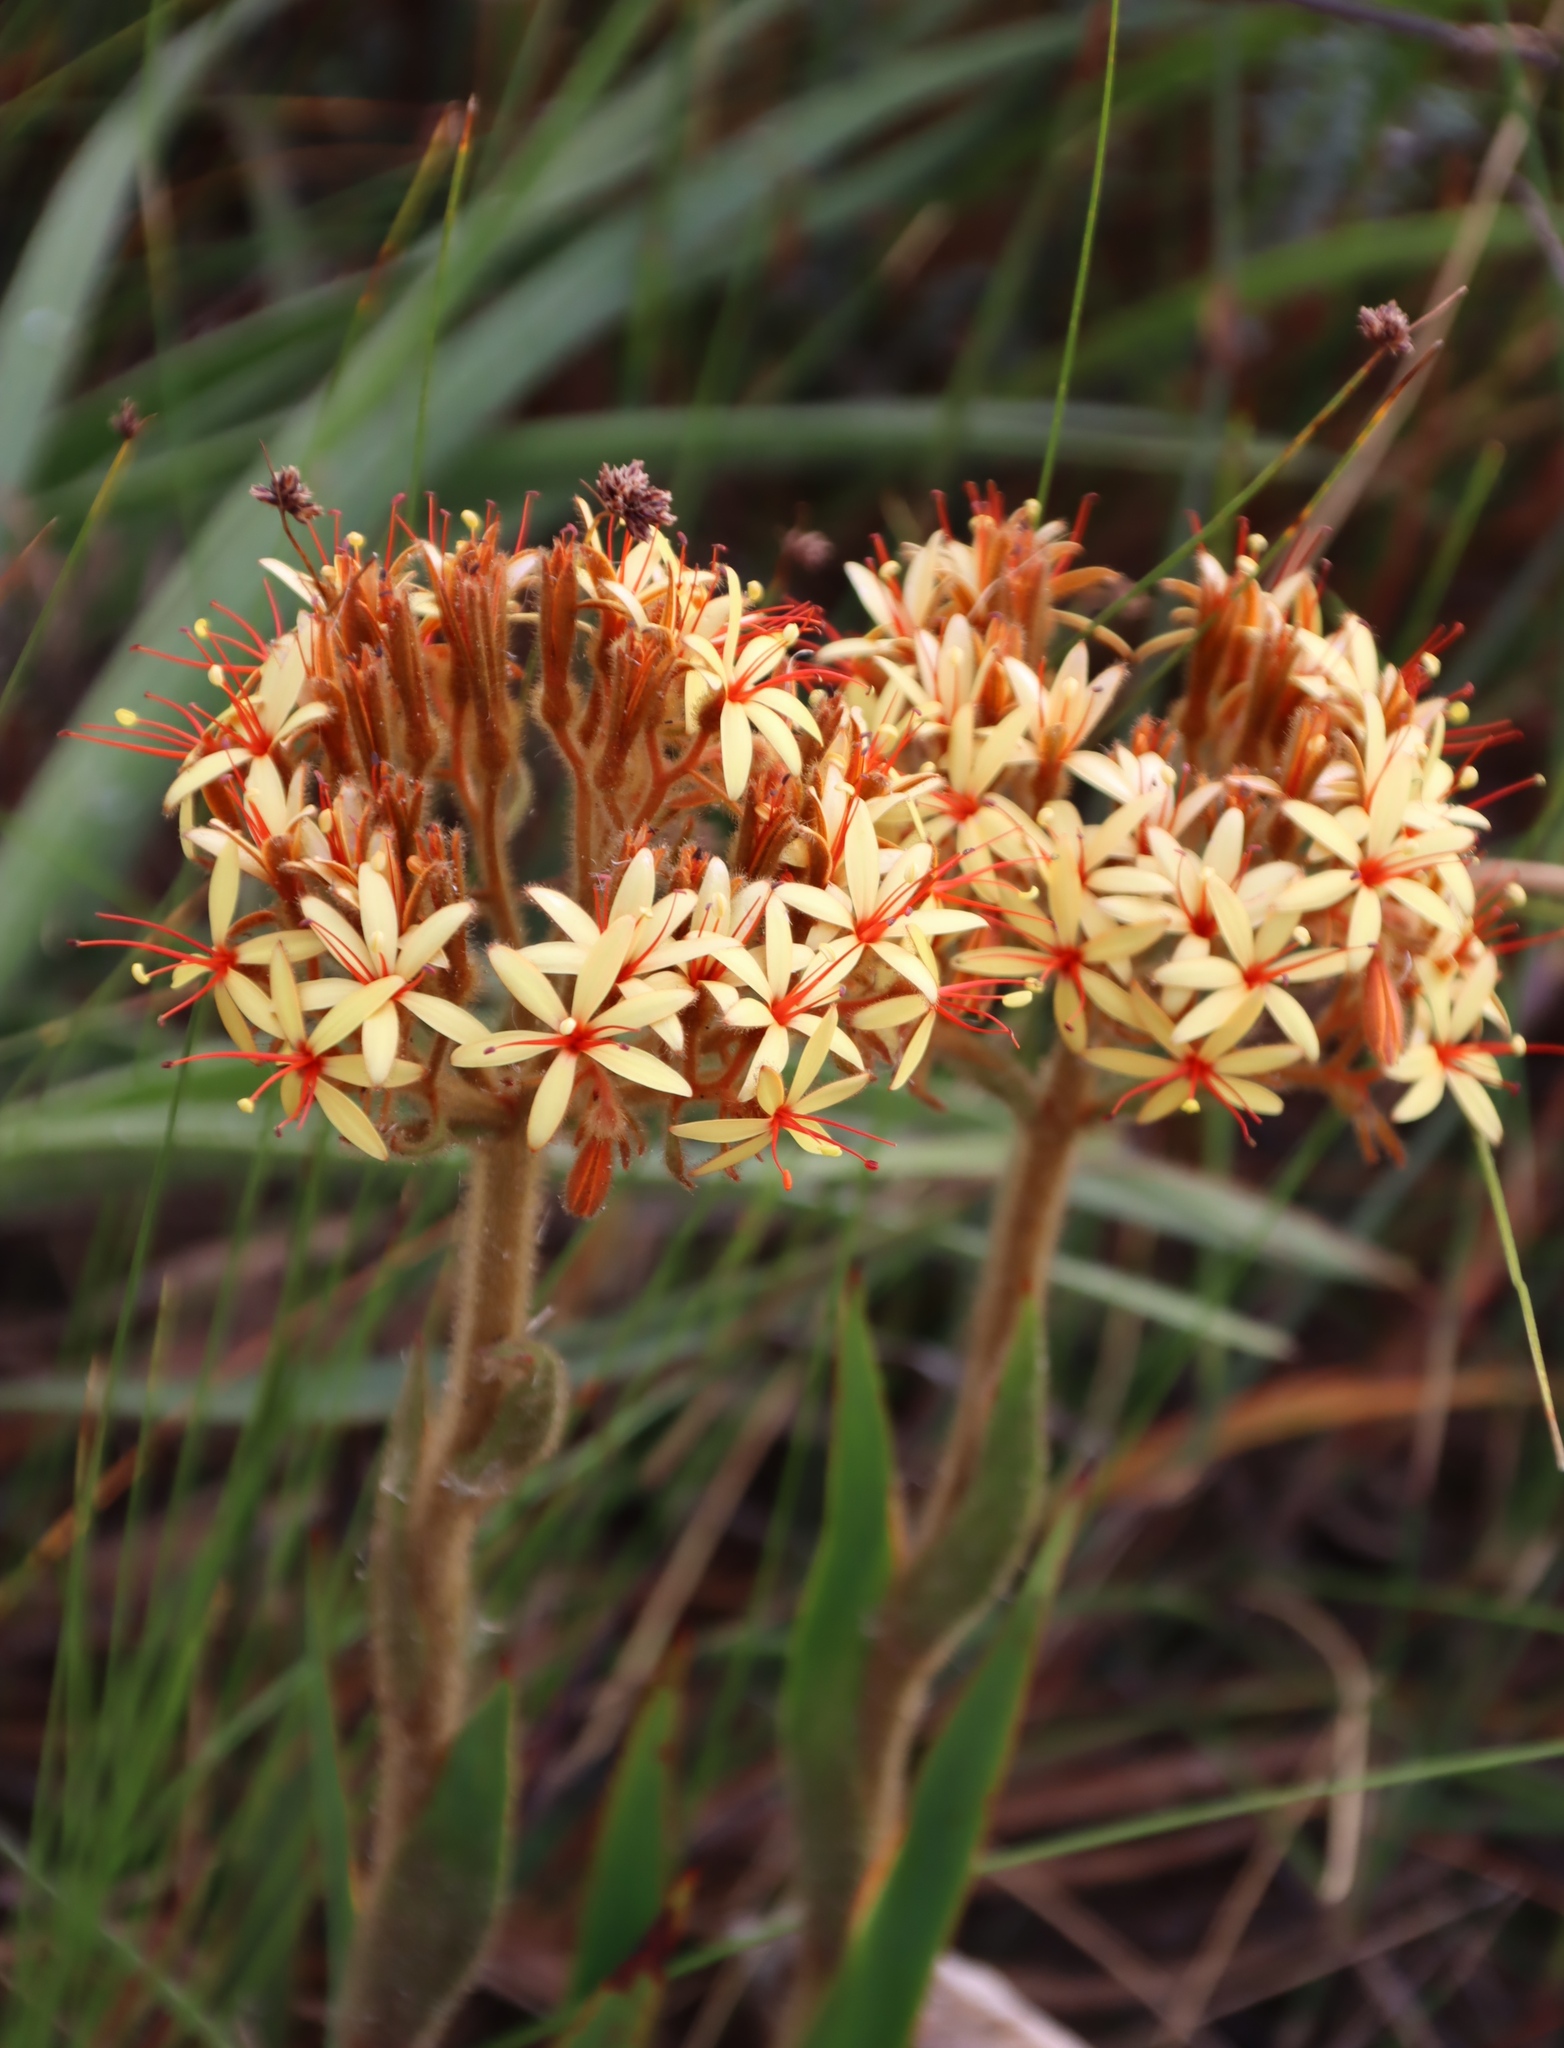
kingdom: Plantae
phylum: Tracheophyta
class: Liliopsida
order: Commelinales
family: Haemodoraceae
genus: Dilatris
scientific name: Dilatris viscosa
